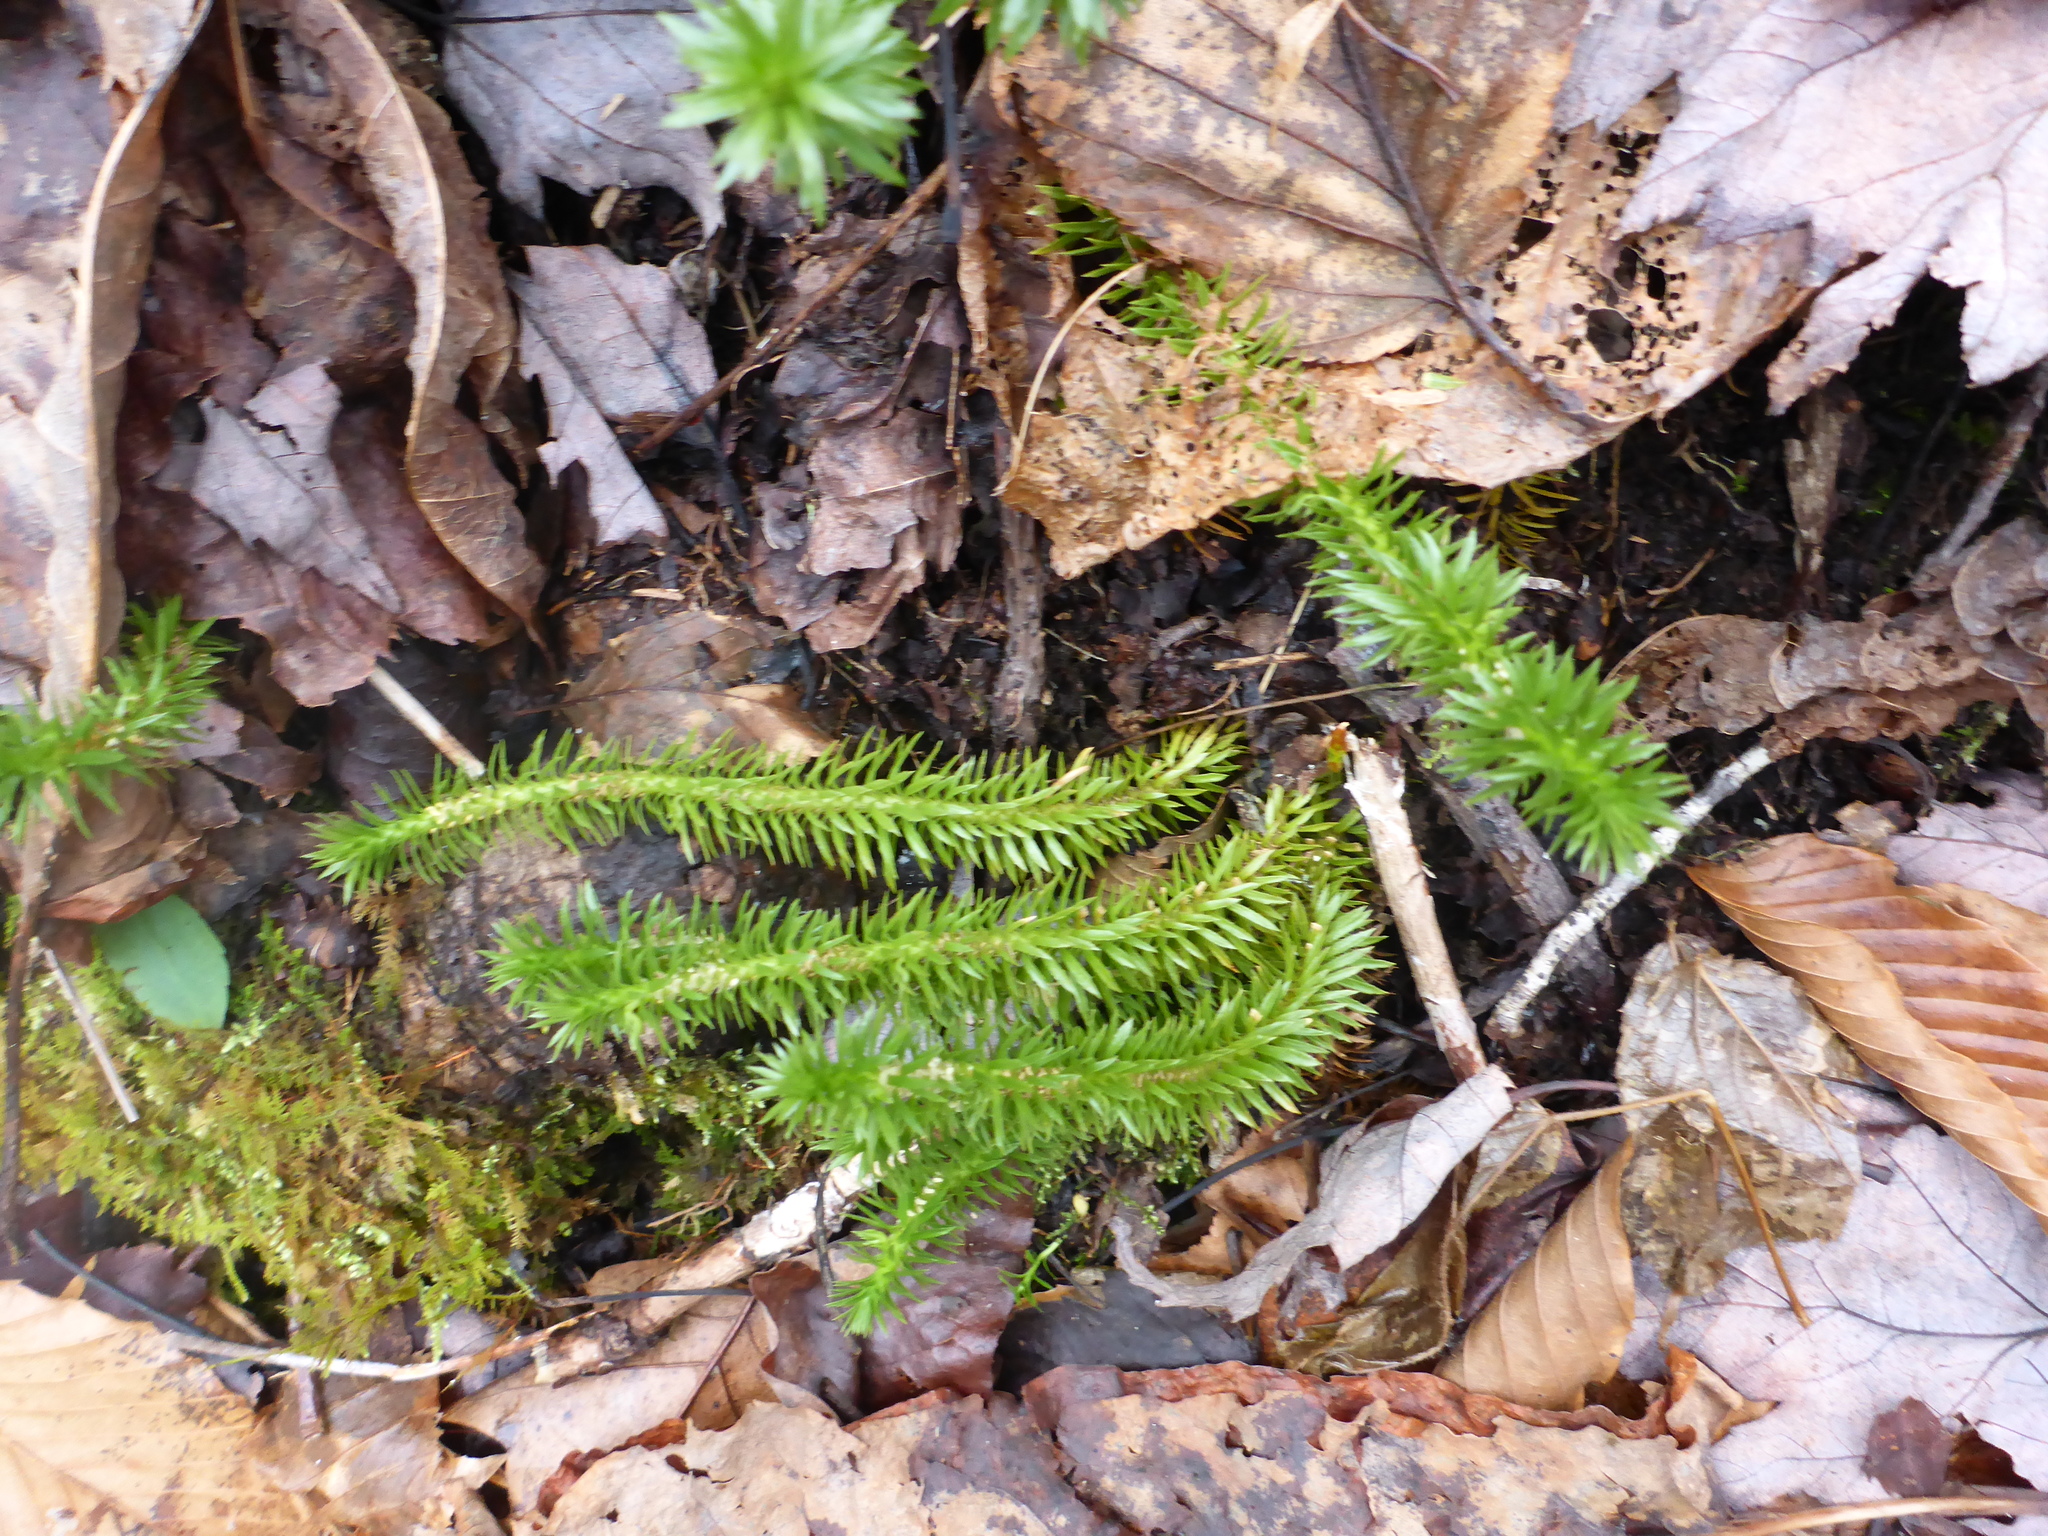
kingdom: Plantae
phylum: Tracheophyta
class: Lycopodiopsida
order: Lycopodiales
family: Lycopodiaceae
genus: Huperzia
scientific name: Huperzia lucidula
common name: Shining clubmoss
